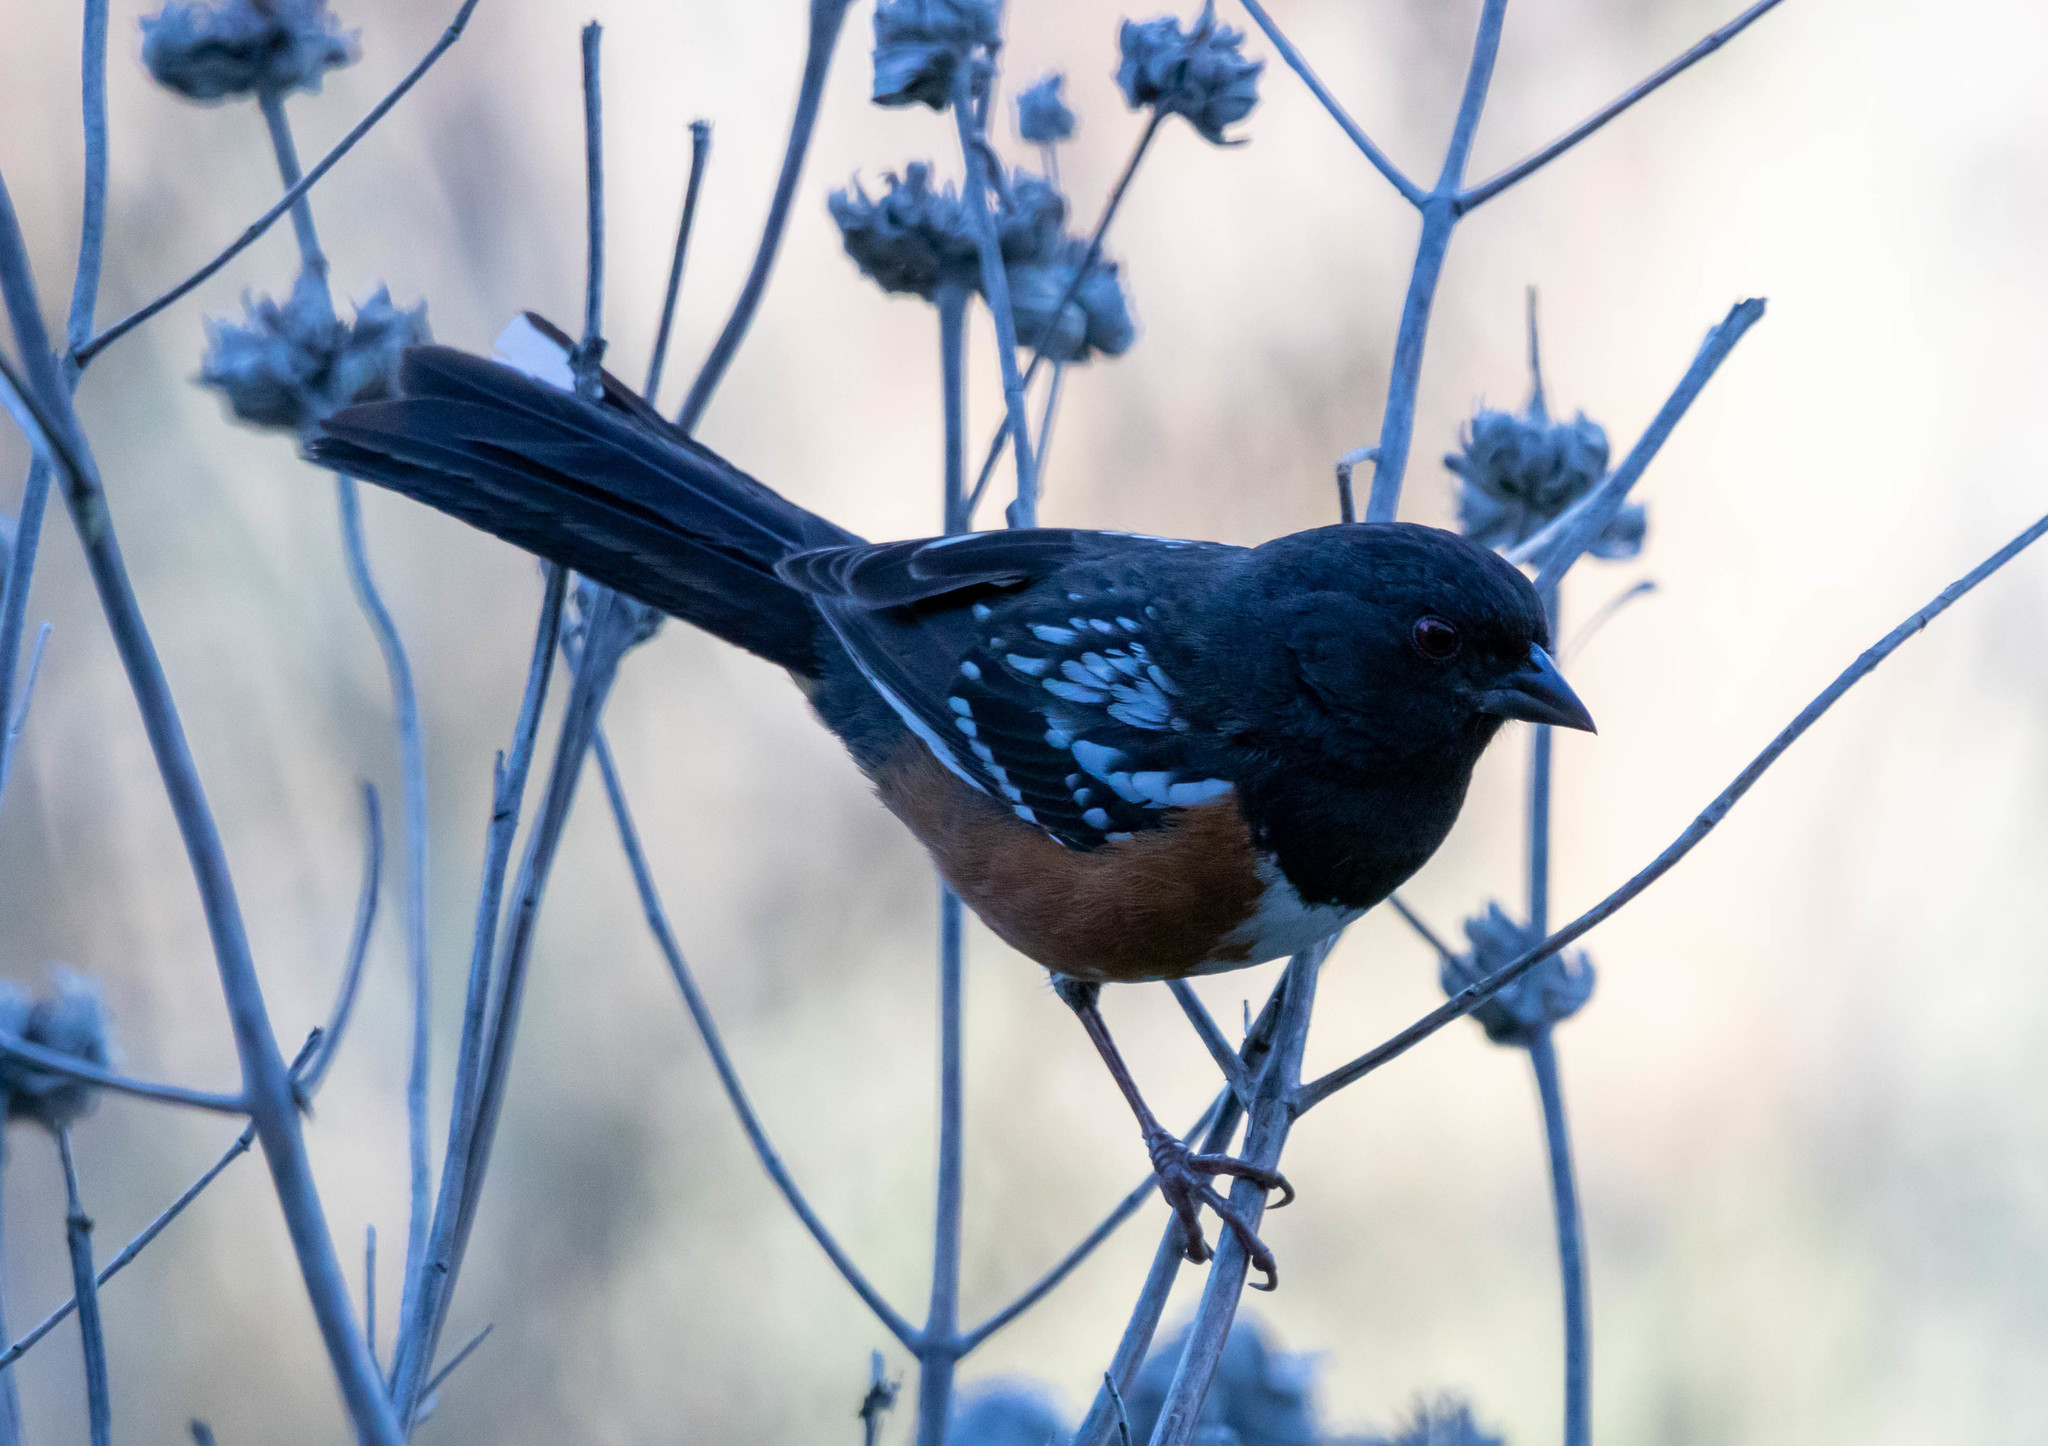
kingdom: Animalia
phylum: Chordata
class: Aves
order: Passeriformes
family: Passerellidae
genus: Pipilo
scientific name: Pipilo maculatus
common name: Spotted towhee
